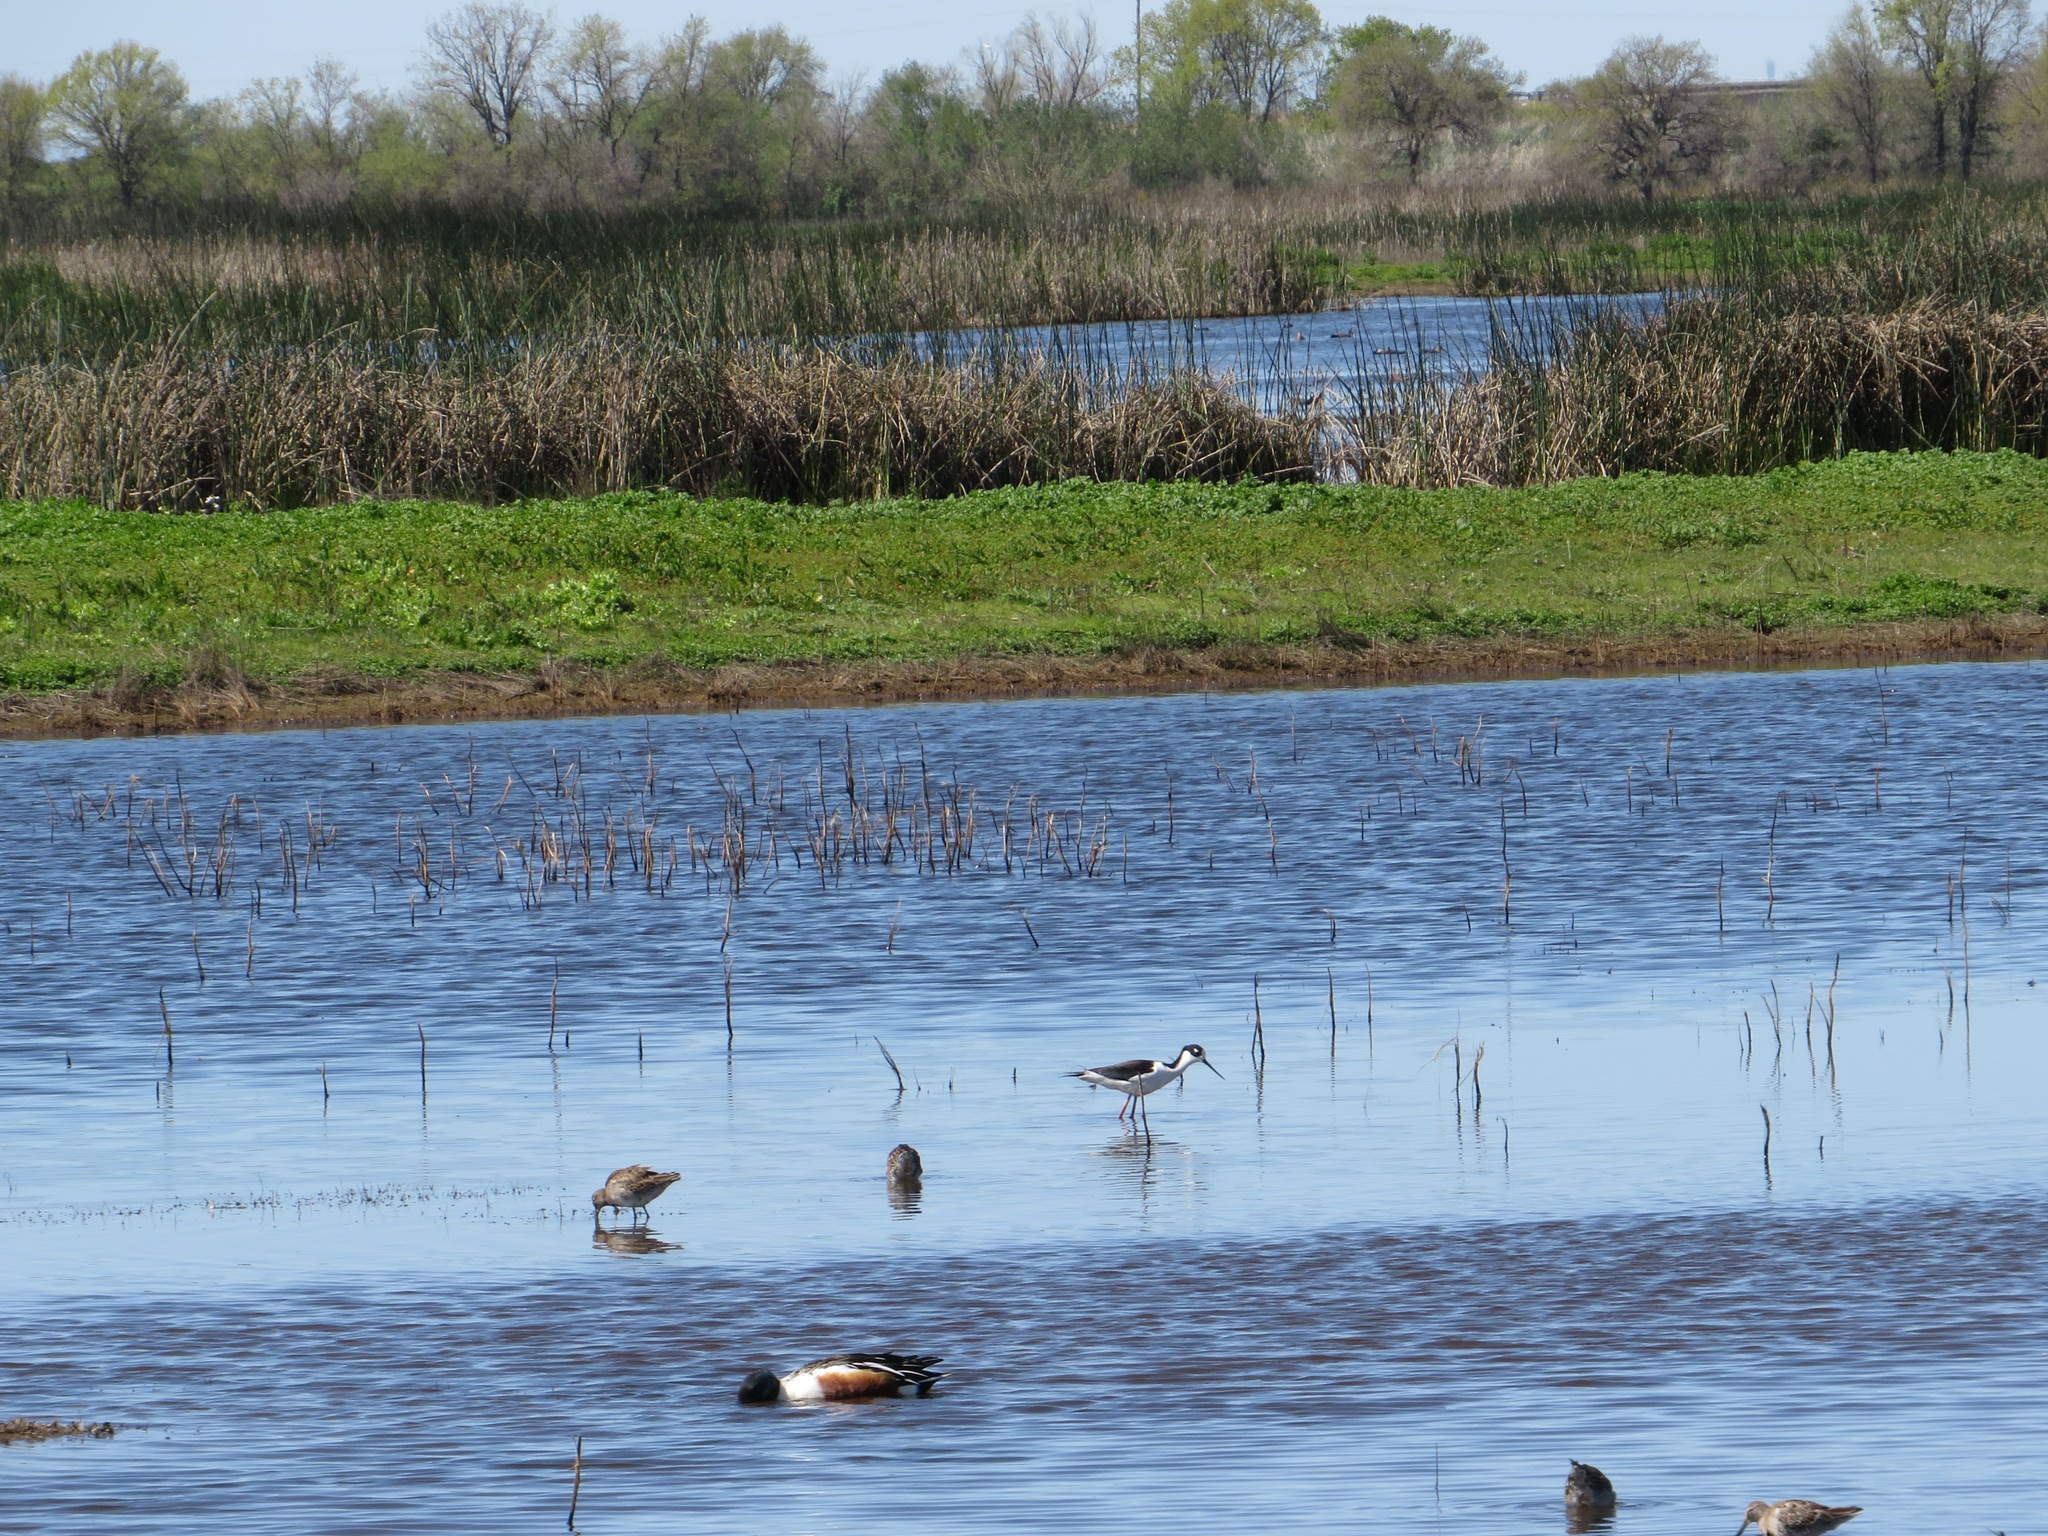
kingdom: Animalia
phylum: Chordata
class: Aves
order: Charadriiformes
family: Recurvirostridae
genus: Himantopus
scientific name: Himantopus mexicanus
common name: Black-necked stilt
